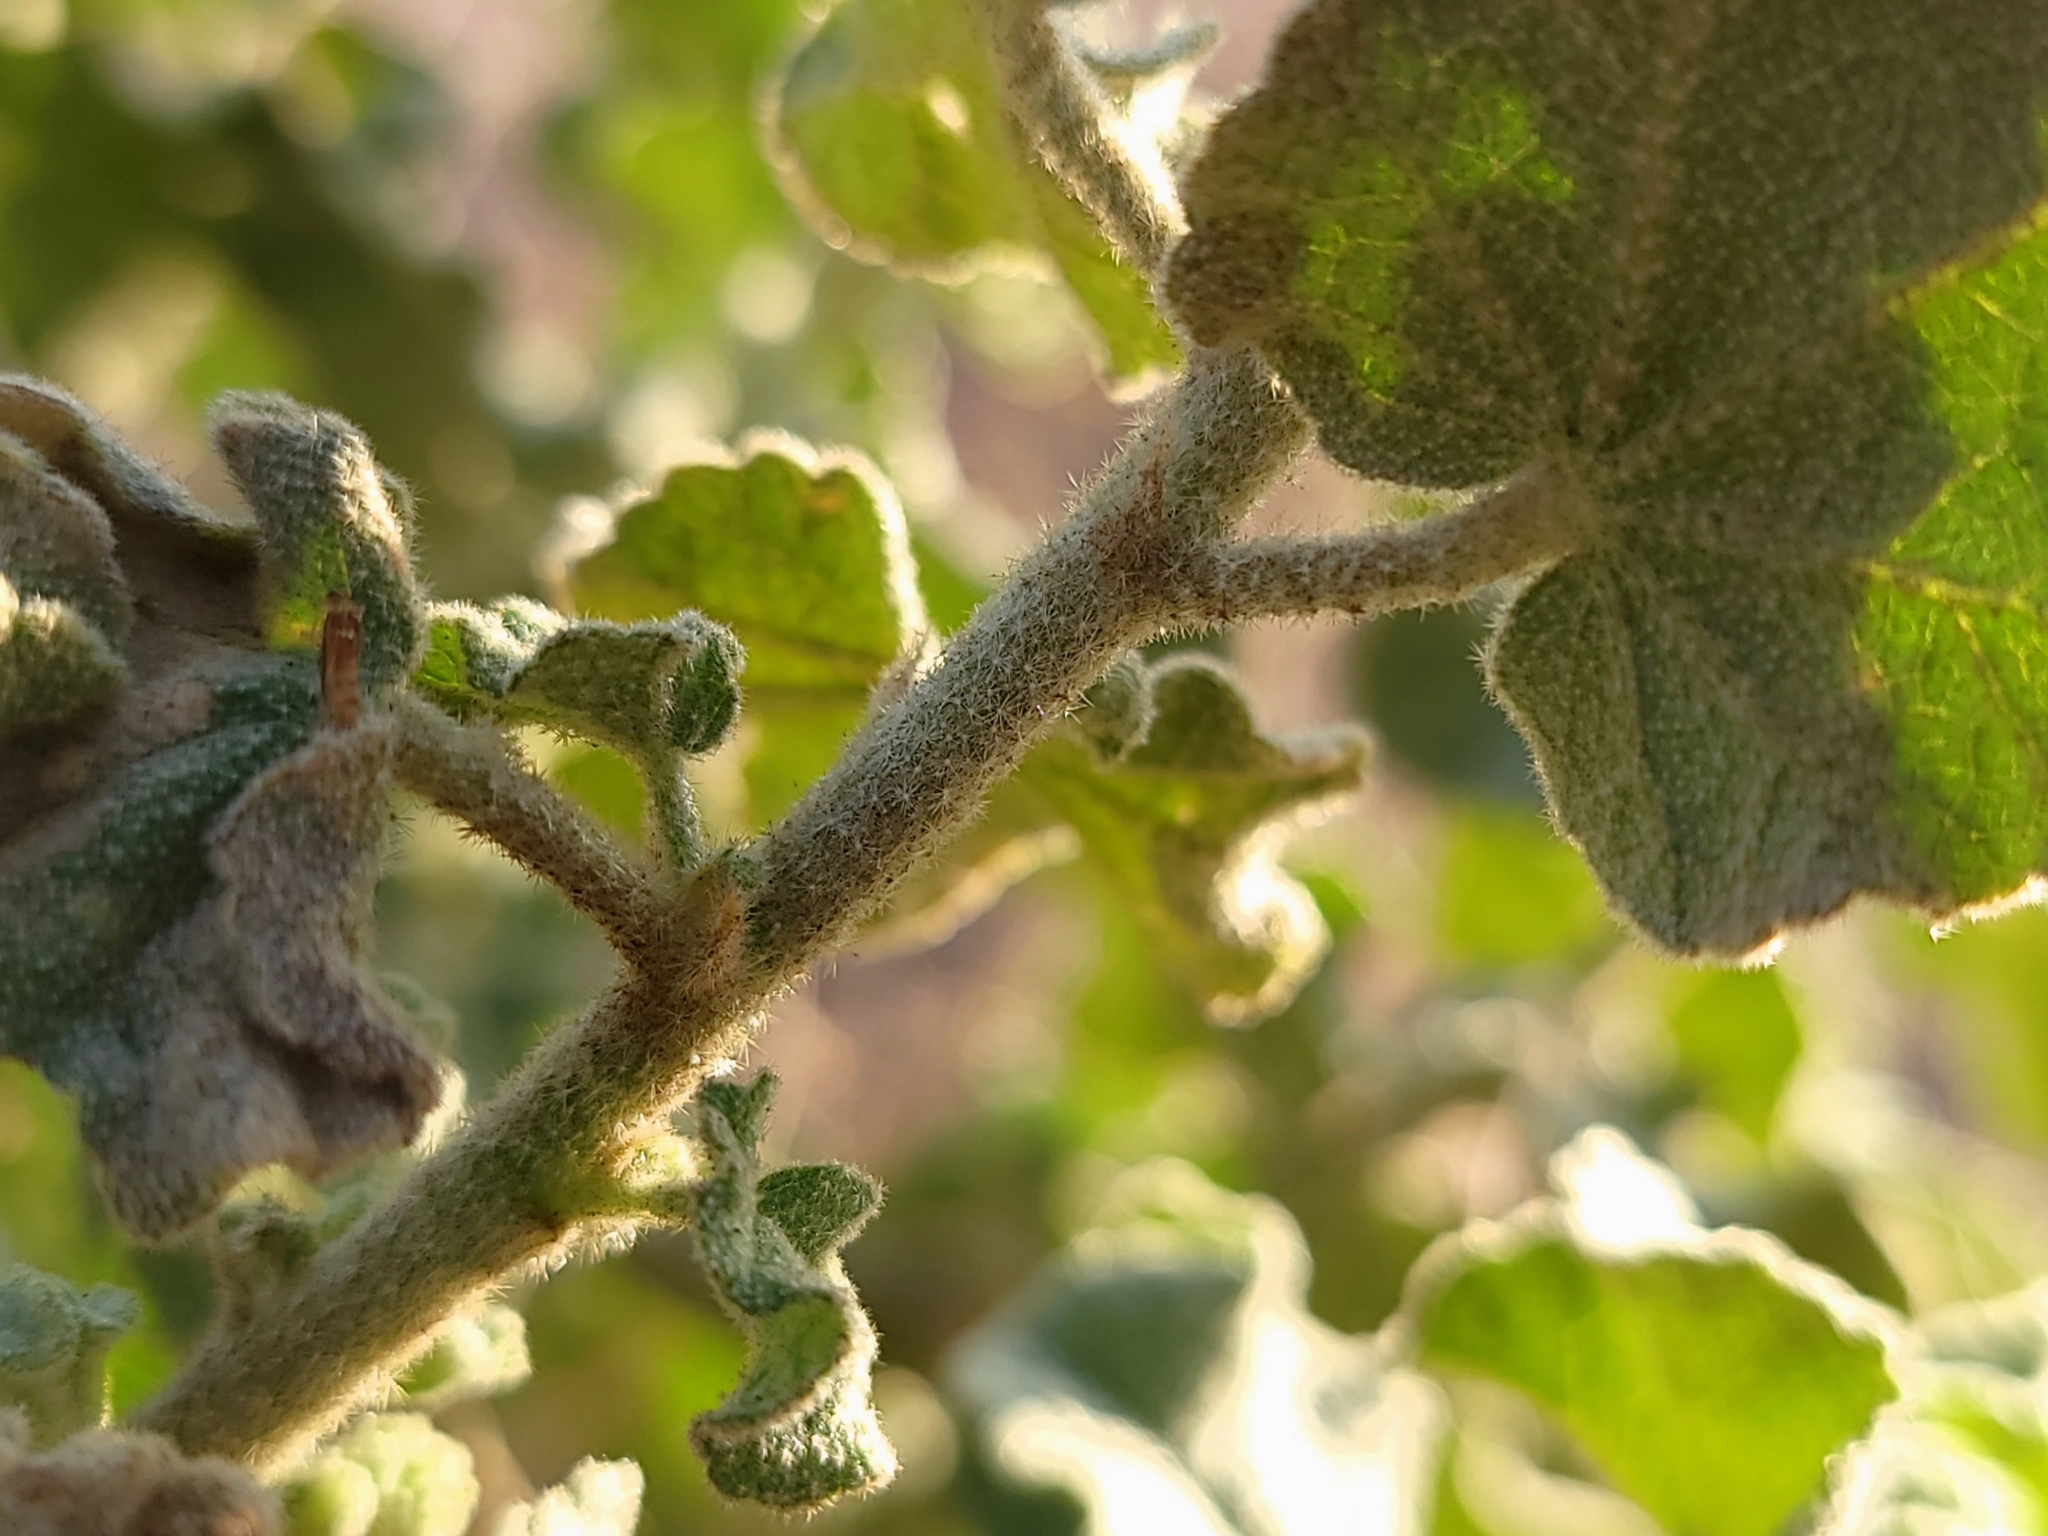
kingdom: Plantae
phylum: Tracheophyta
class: Magnoliopsida
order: Malvales
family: Malvaceae
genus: Malacothamnus
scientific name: Malacothamnus fremontii
